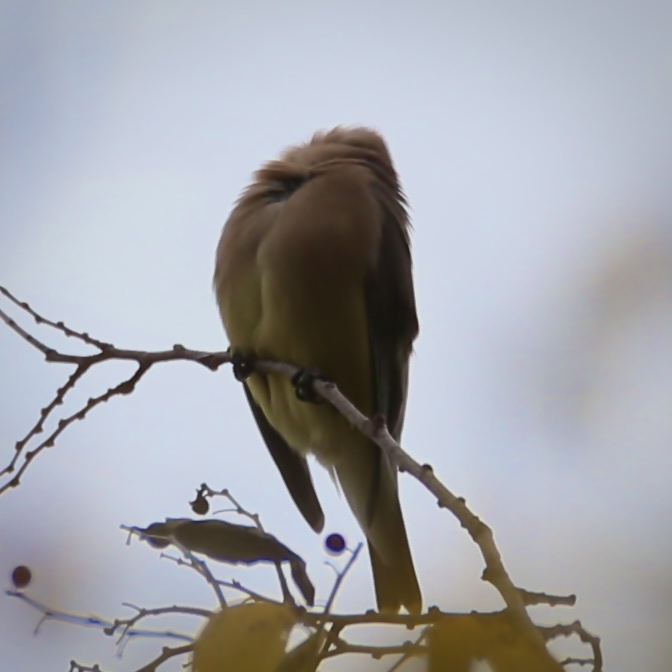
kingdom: Animalia
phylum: Chordata
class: Aves
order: Passeriformes
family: Bombycillidae
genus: Bombycilla
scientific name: Bombycilla cedrorum
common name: Cedar waxwing
